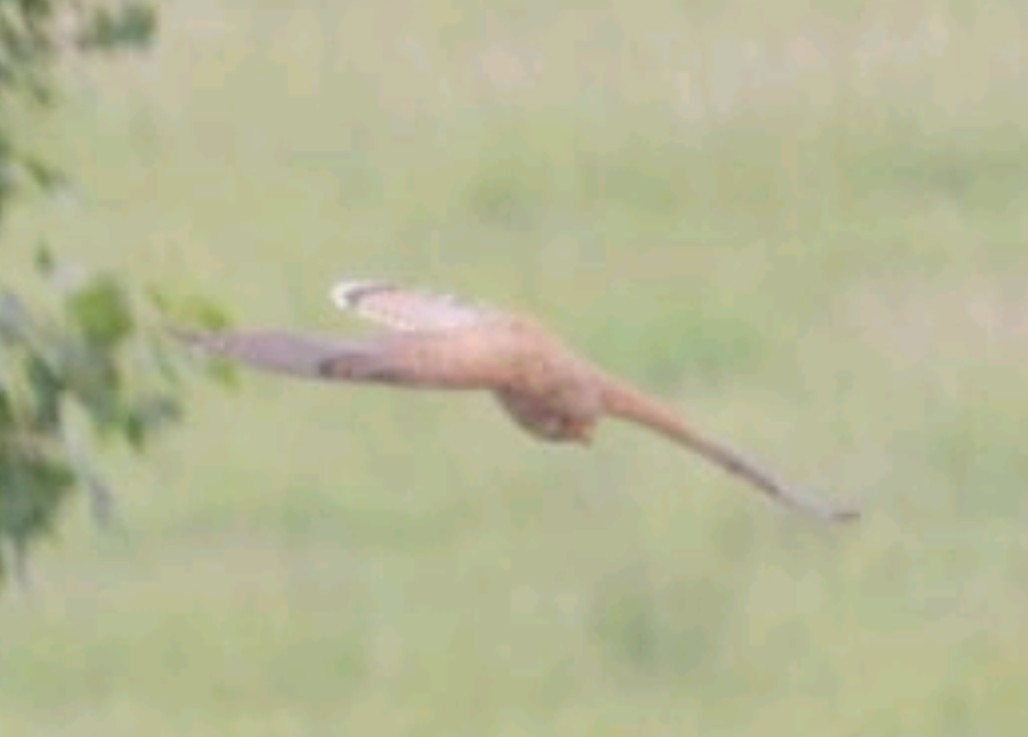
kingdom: Animalia
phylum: Chordata
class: Aves
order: Falconiformes
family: Falconidae
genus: Falco
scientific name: Falco tinnunculus
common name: Common kestrel
